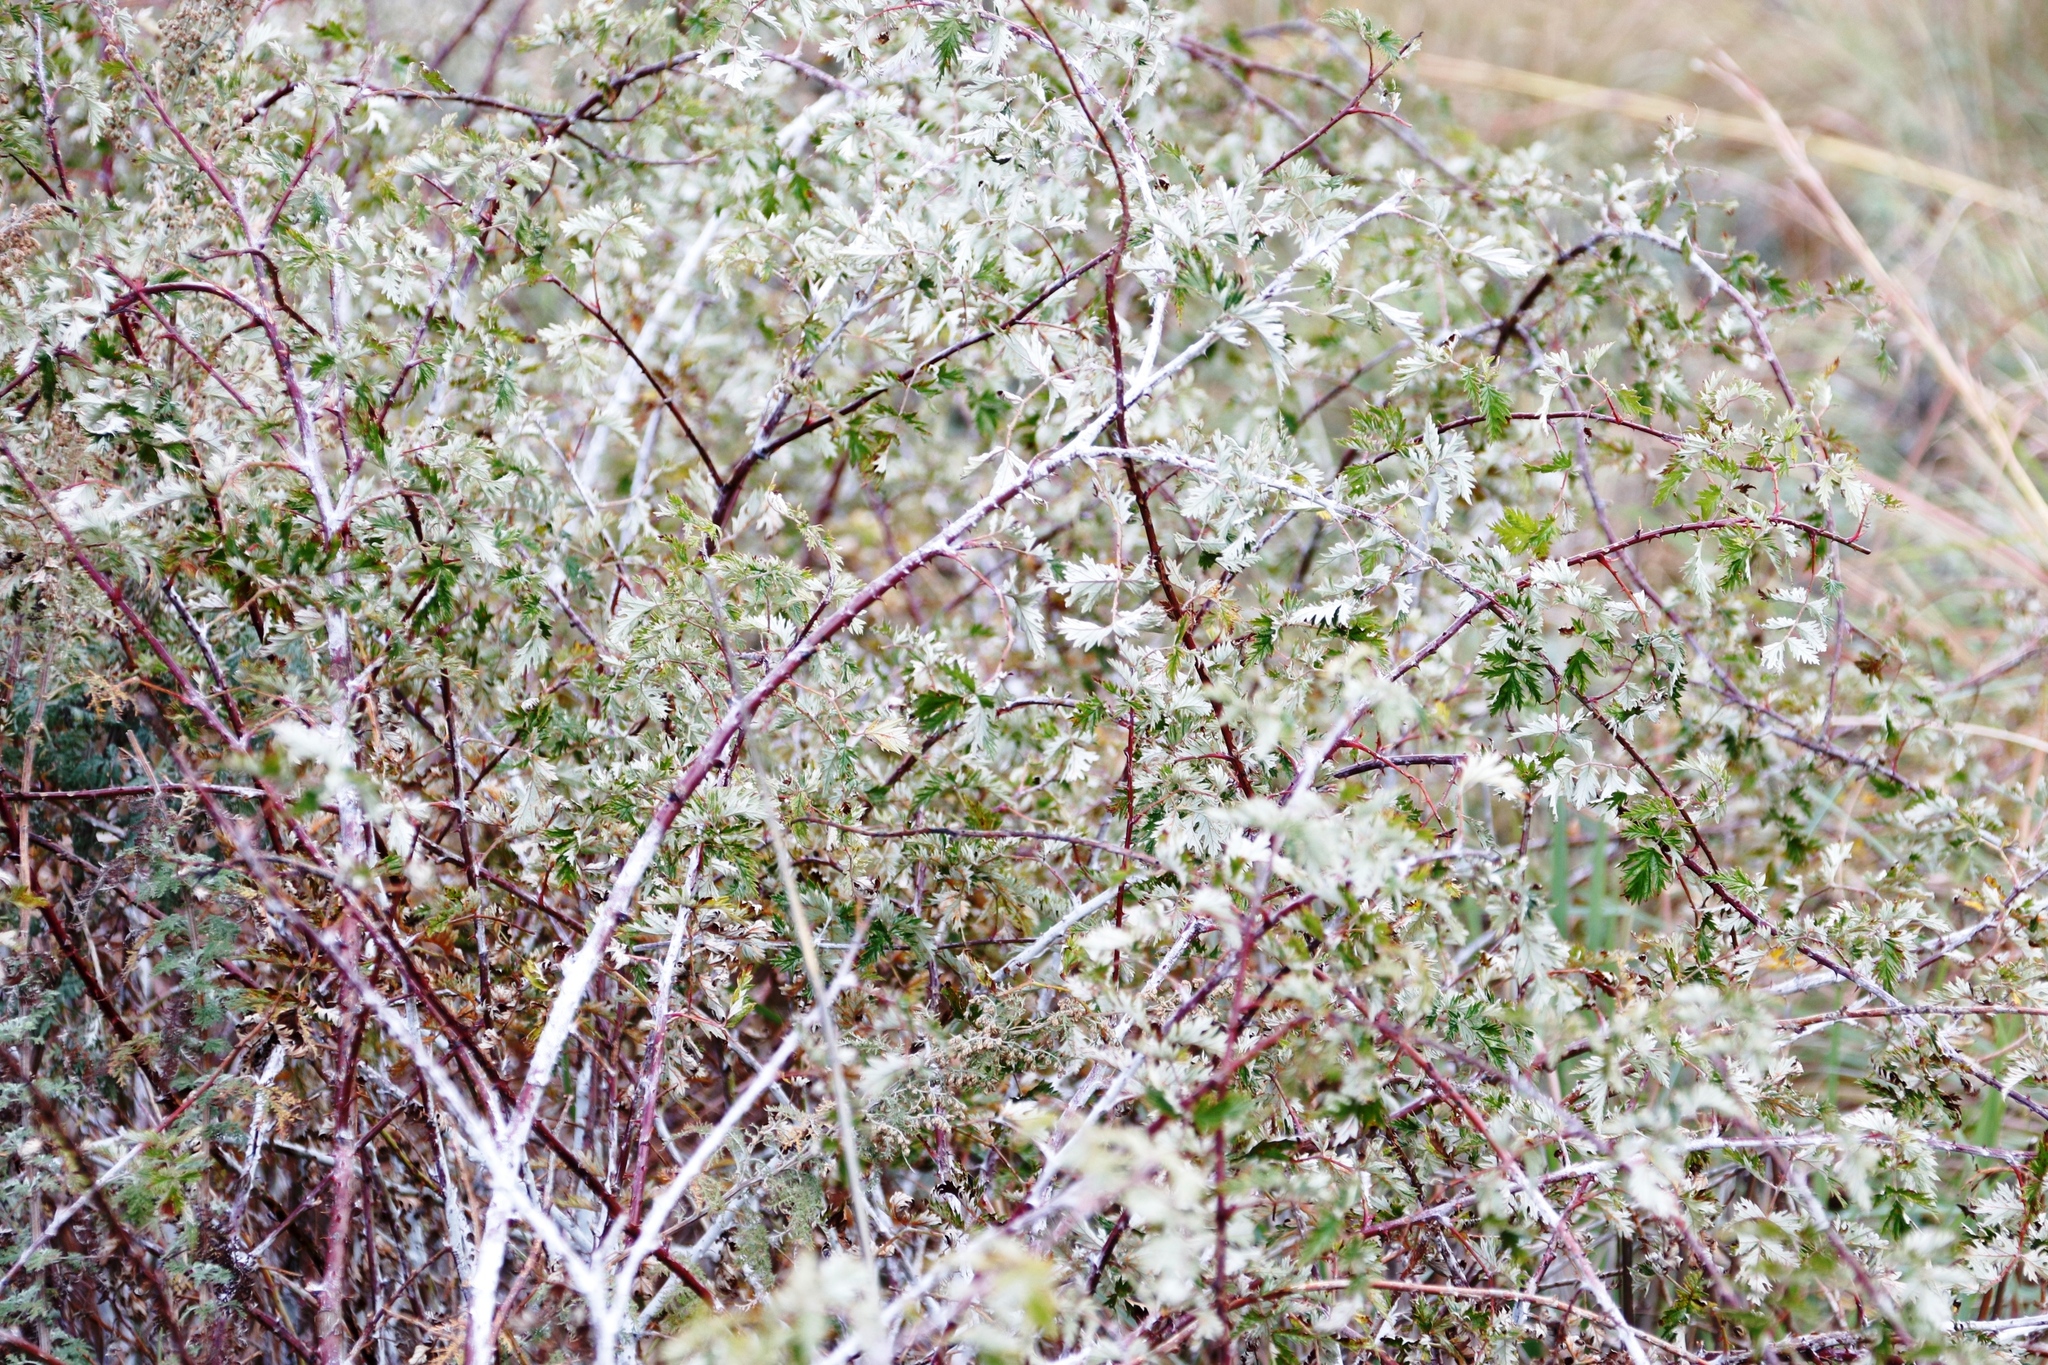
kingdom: Plantae
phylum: Tracheophyta
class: Magnoliopsida
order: Rosales
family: Rosaceae
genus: Rubus
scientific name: Rubus ludwigii
